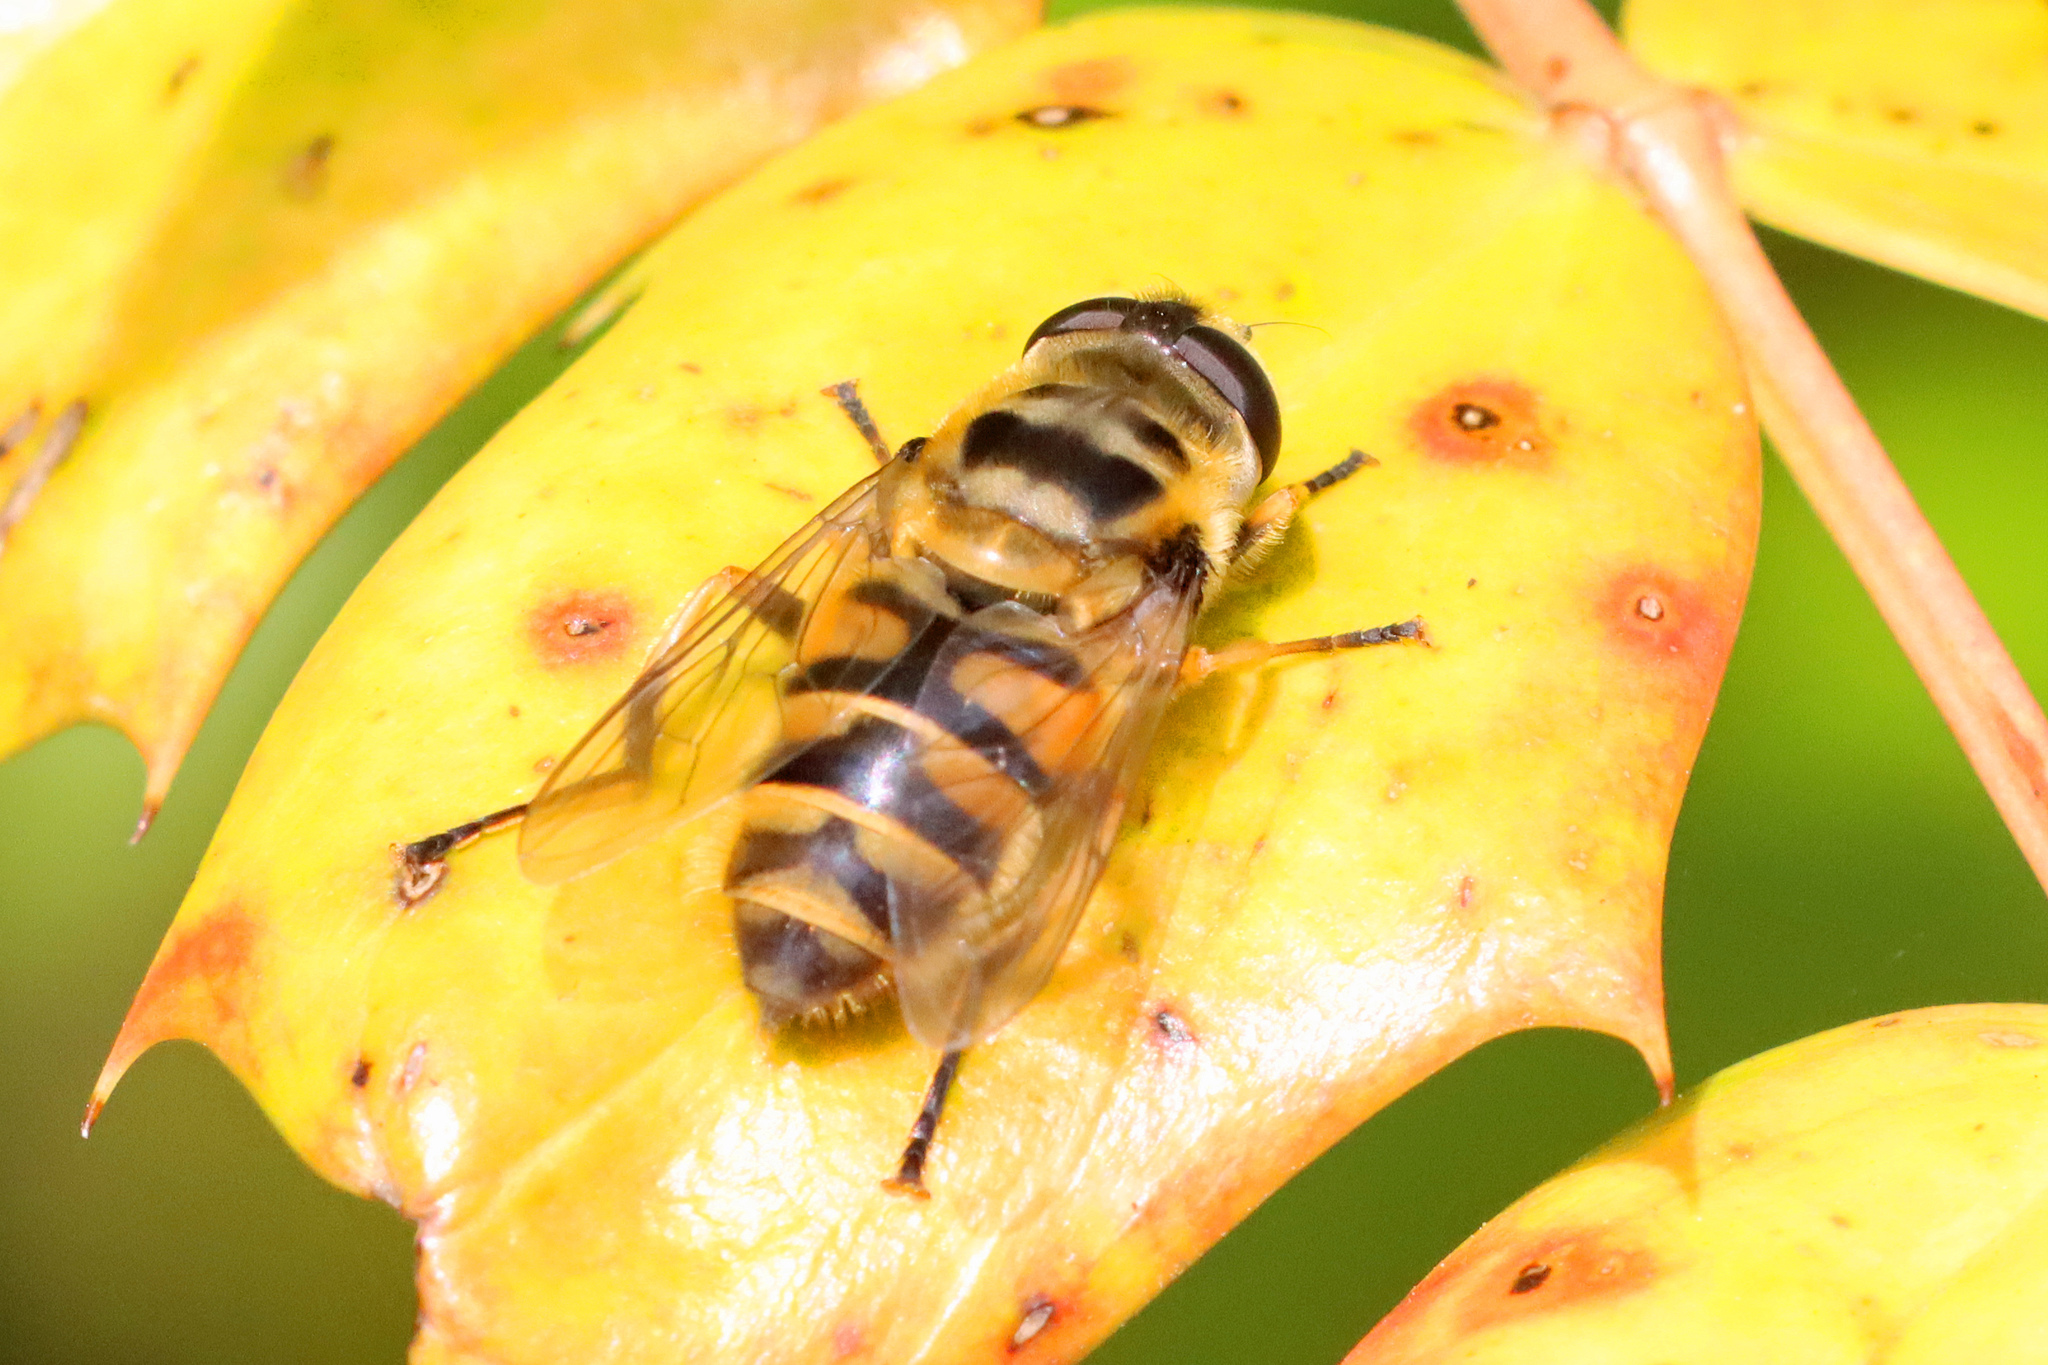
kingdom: Animalia
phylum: Arthropoda
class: Insecta
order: Diptera
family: Syrphidae
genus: Myathropa
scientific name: Myathropa florea
